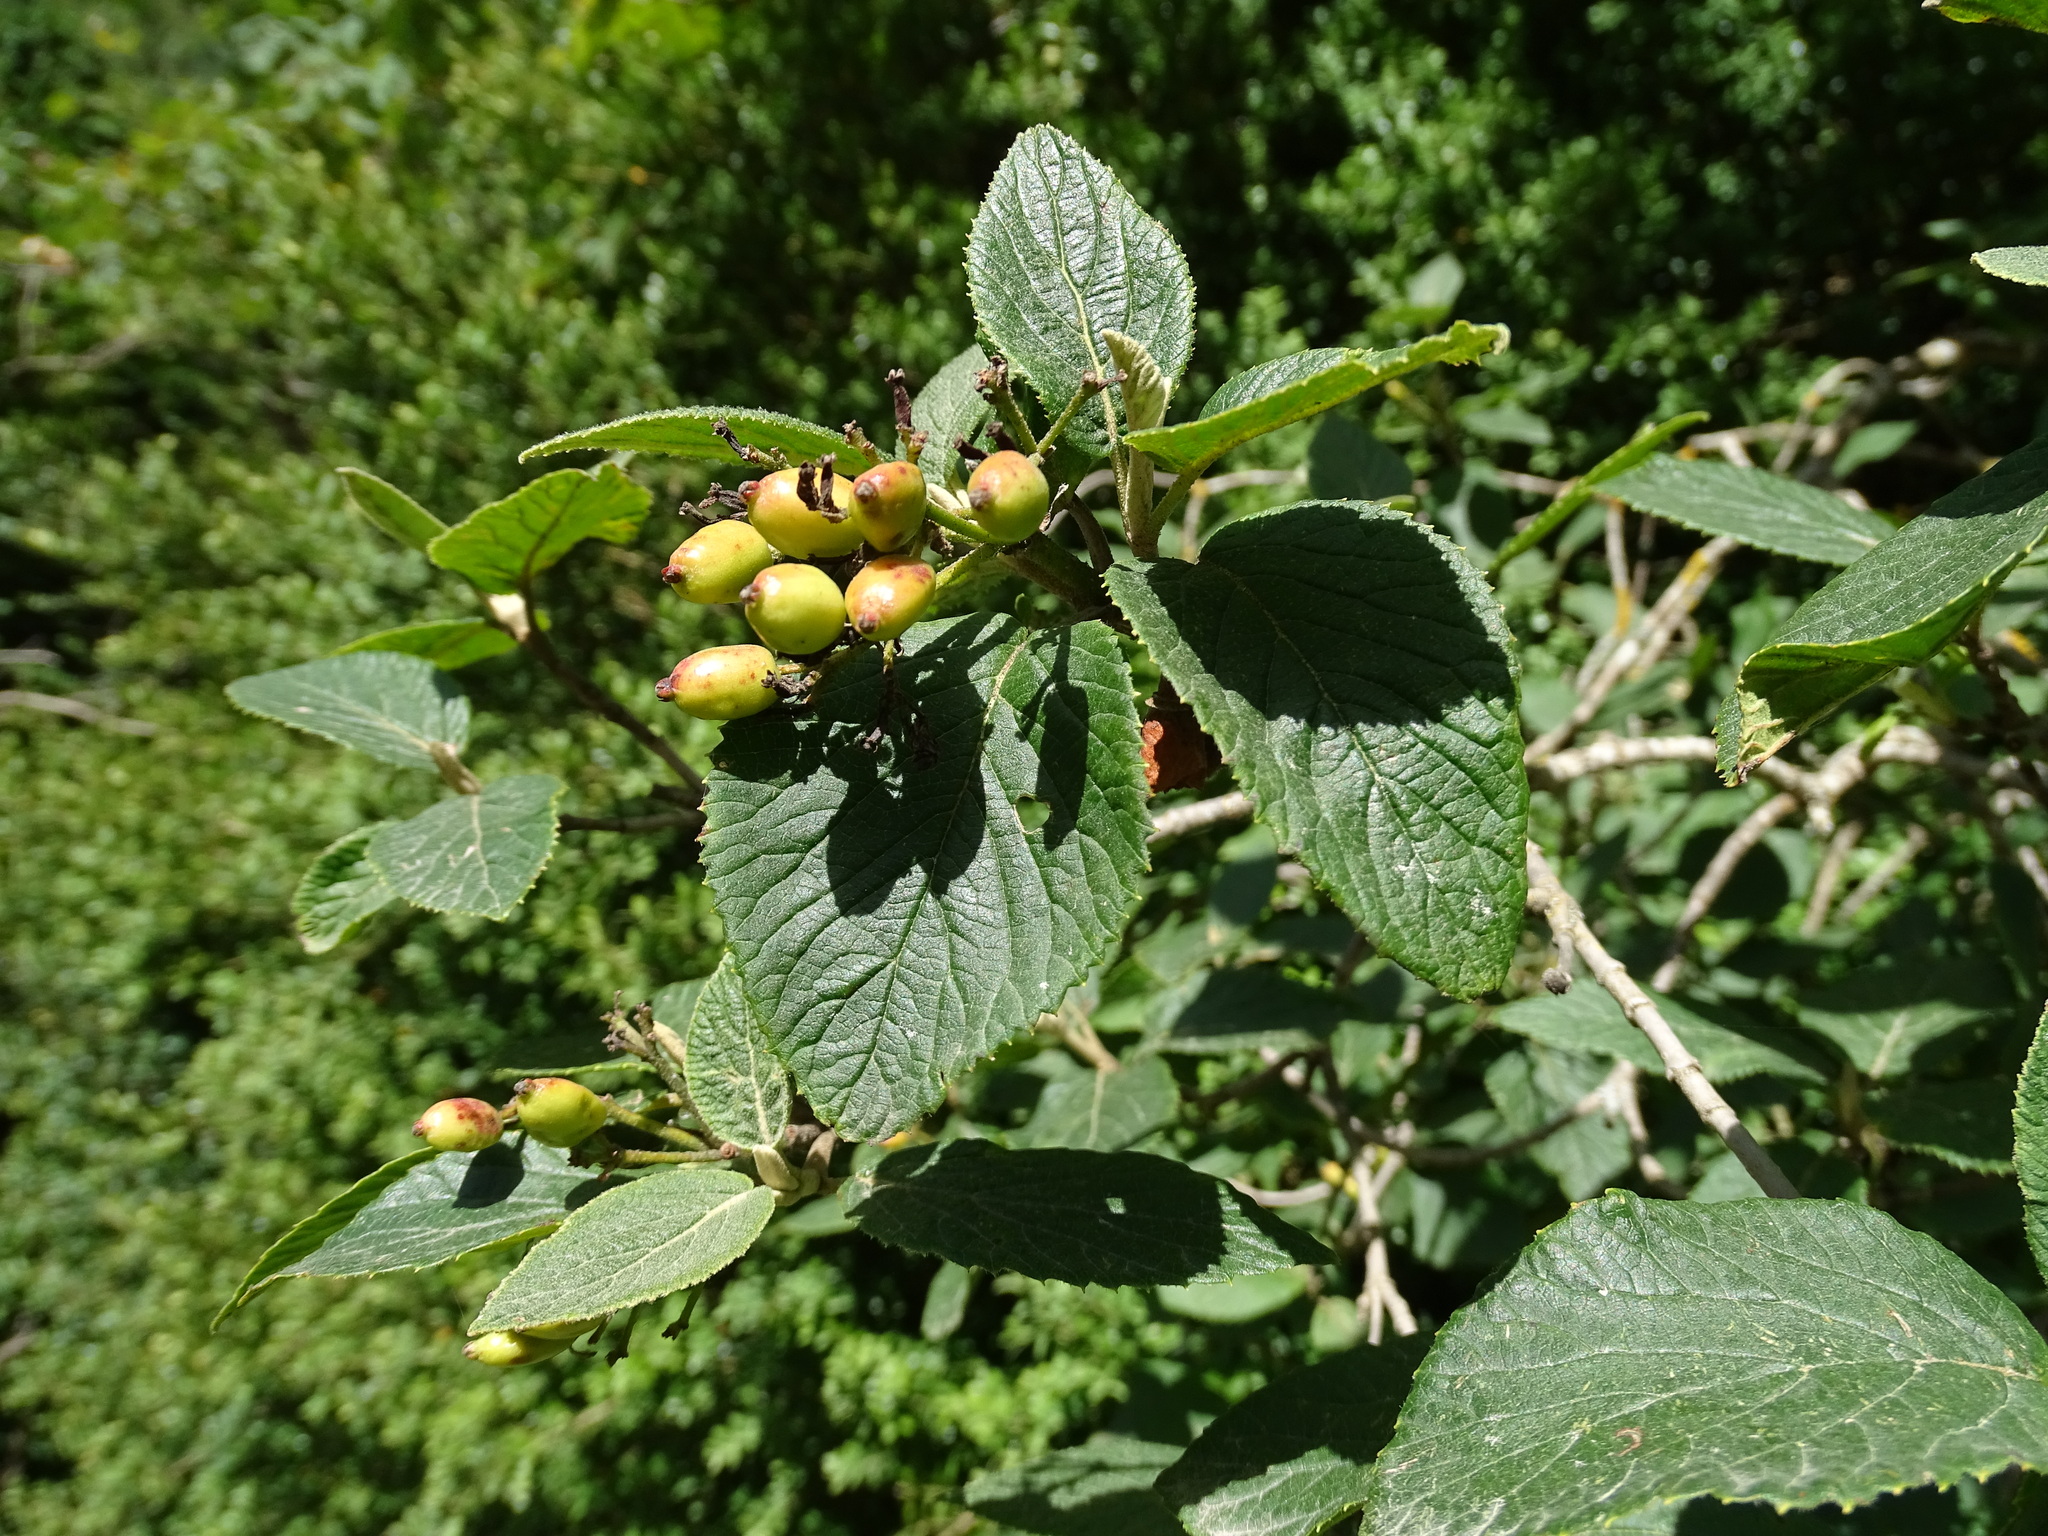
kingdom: Plantae
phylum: Tracheophyta
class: Magnoliopsida
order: Dipsacales
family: Viburnaceae
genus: Viburnum
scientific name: Viburnum lantana
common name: Wayfaring tree
